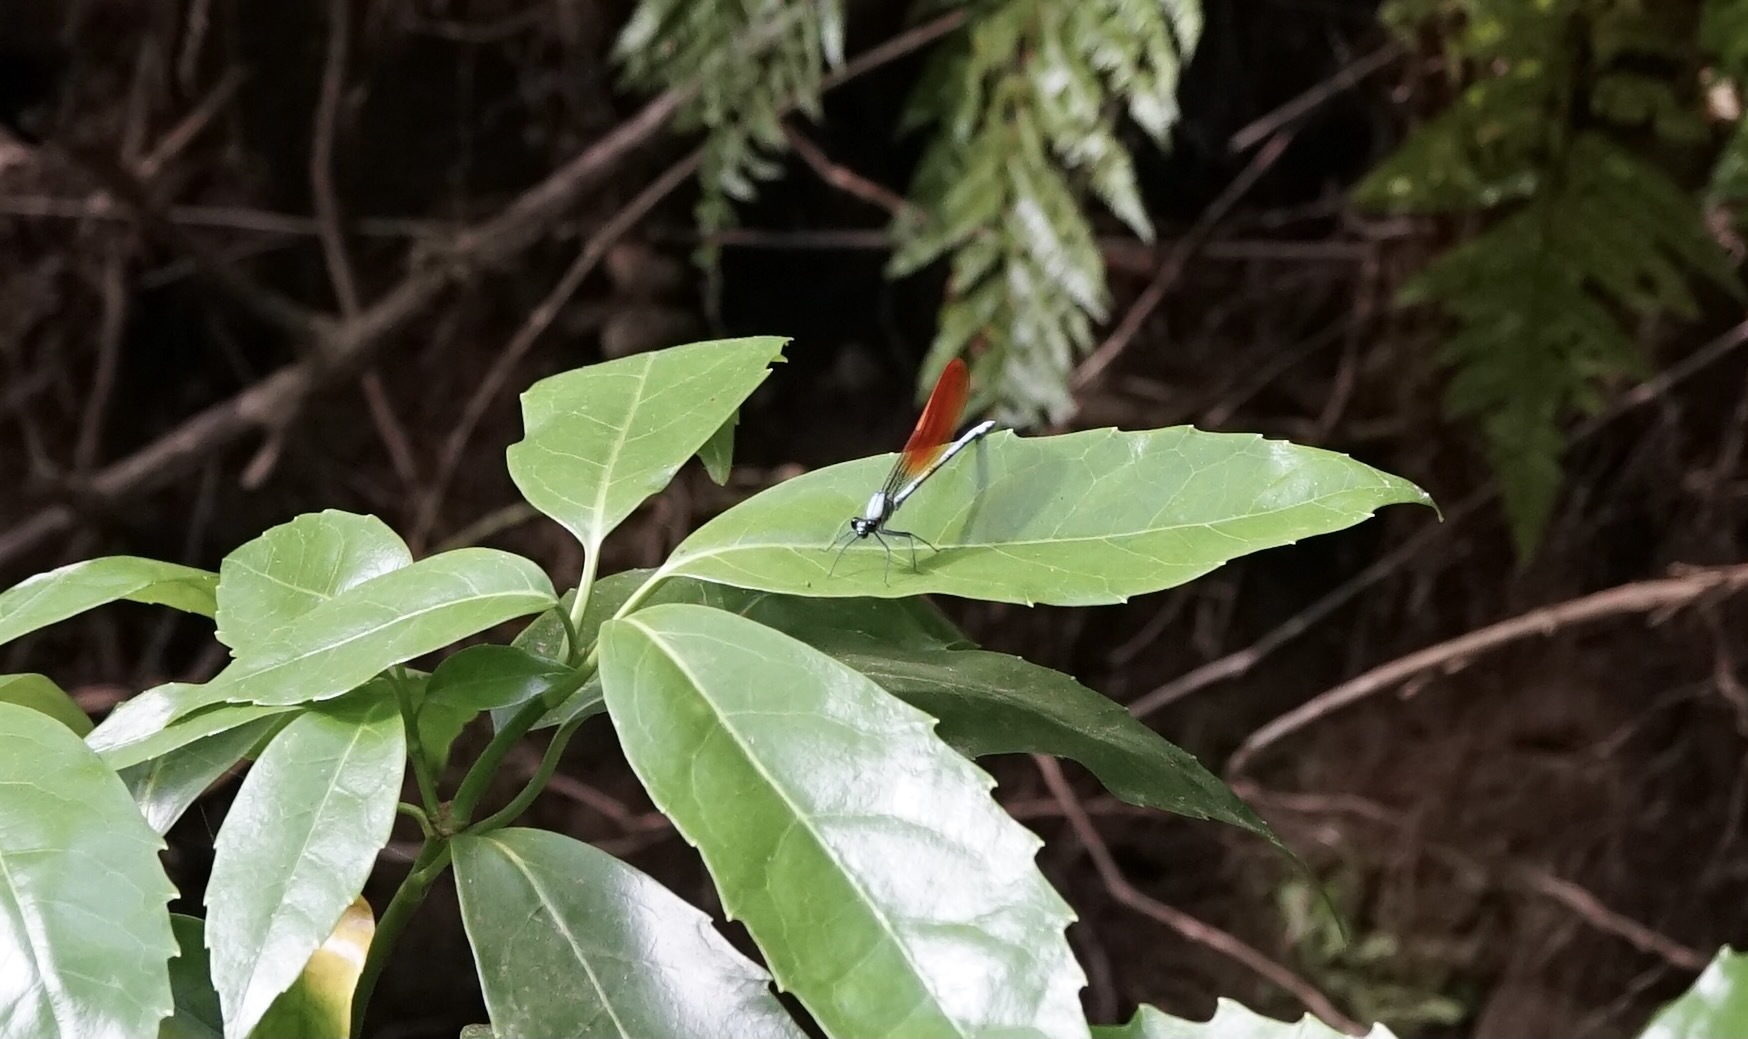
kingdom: Animalia
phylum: Arthropoda
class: Insecta
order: Odonata
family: Calopterygidae
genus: Mnais
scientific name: Mnais pruinosa
